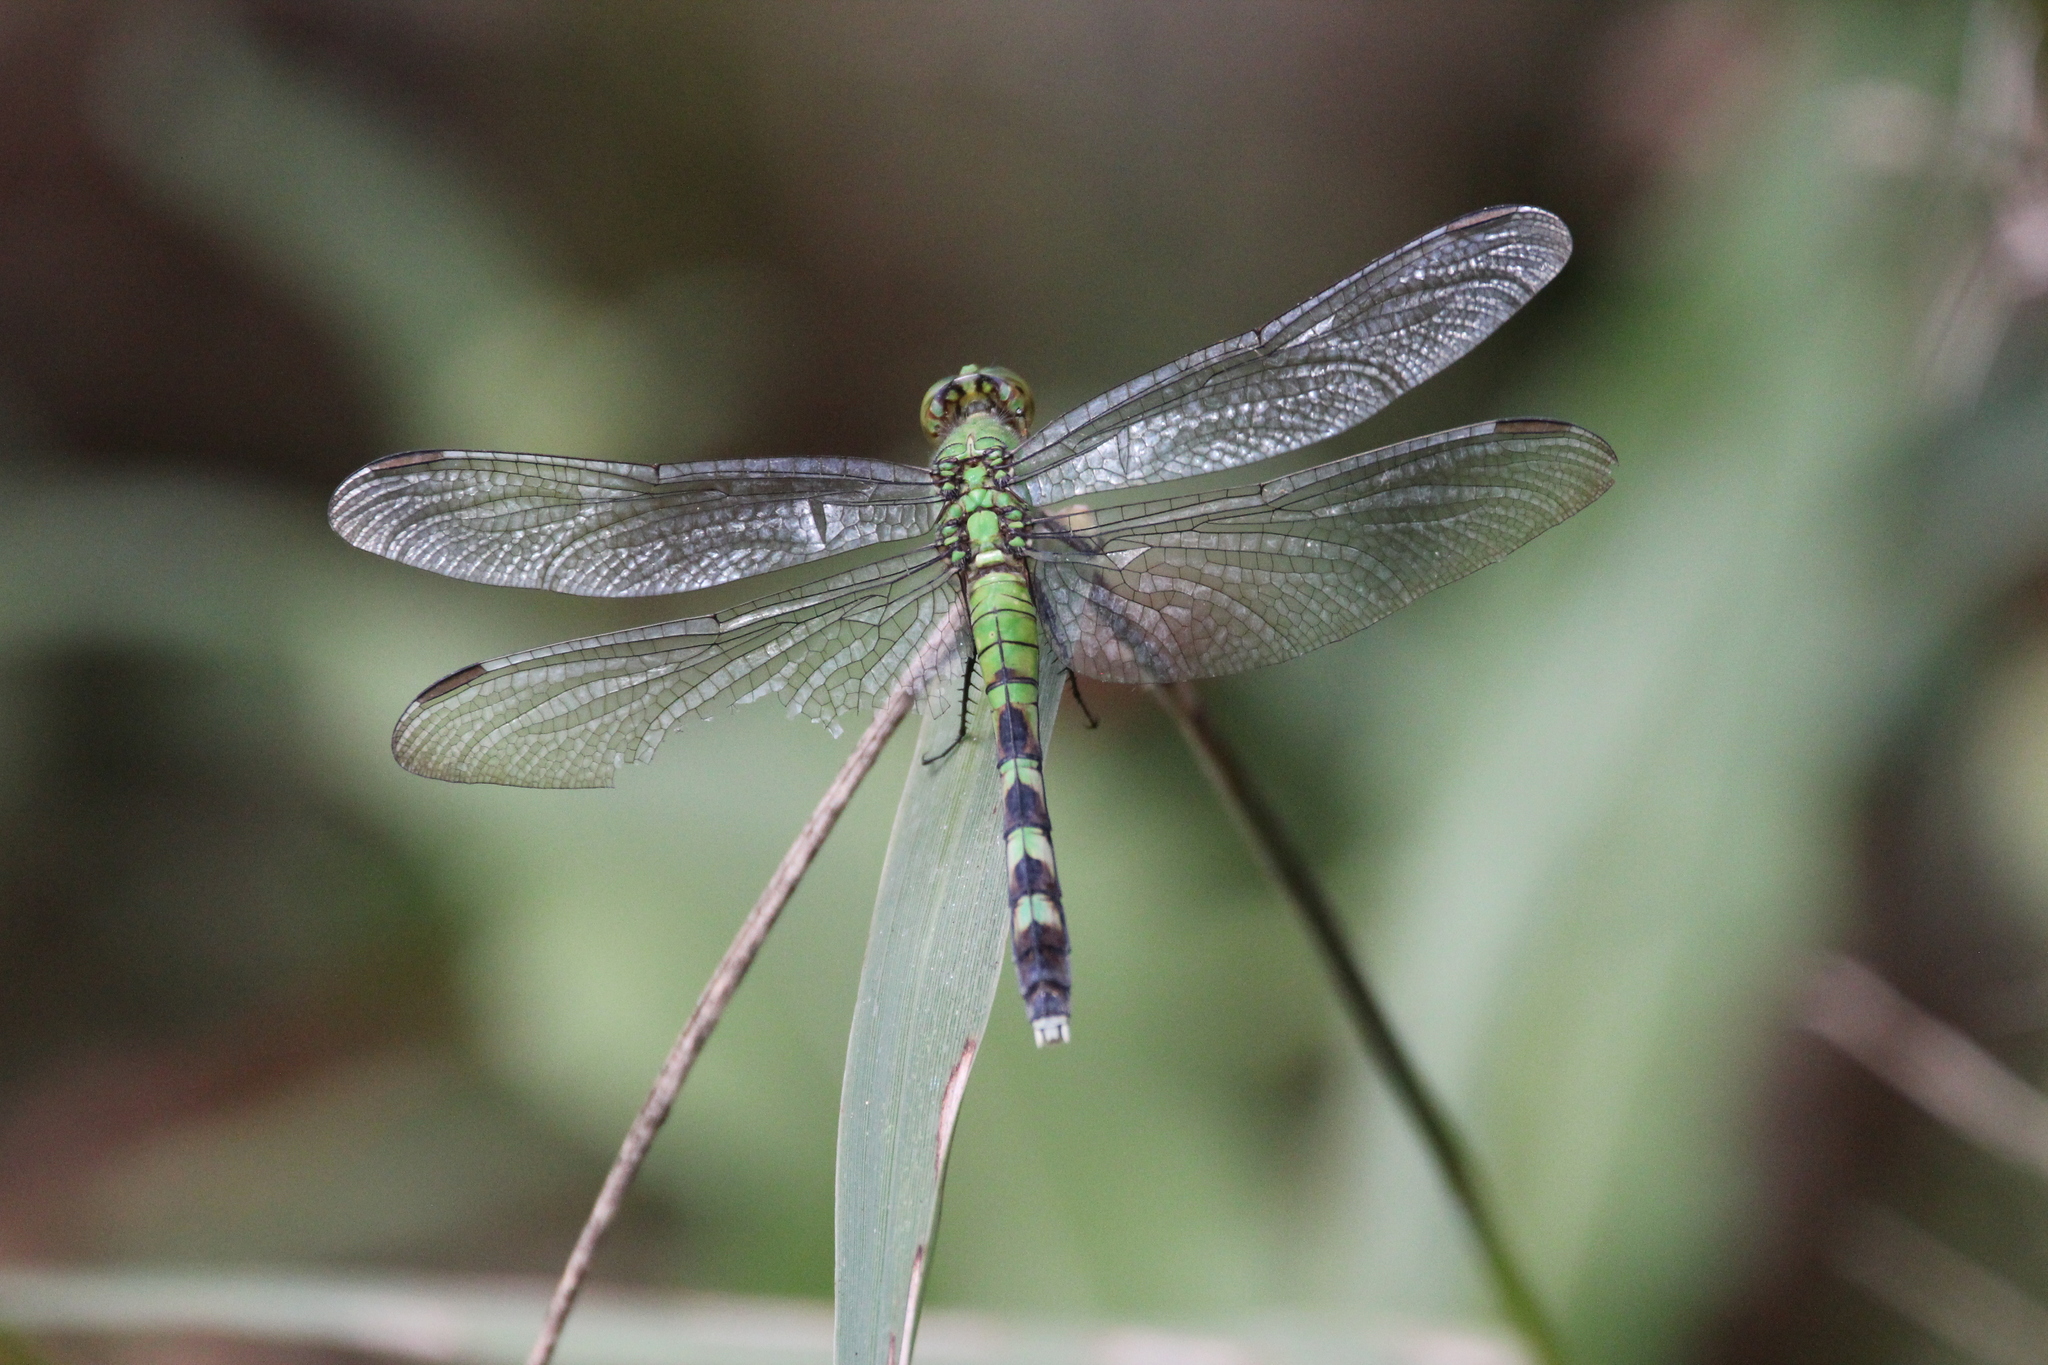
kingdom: Animalia
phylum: Arthropoda
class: Insecta
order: Odonata
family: Libellulidae
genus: Erythemis
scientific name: Erythemis simplicicollis
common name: Eastern pondhawk
